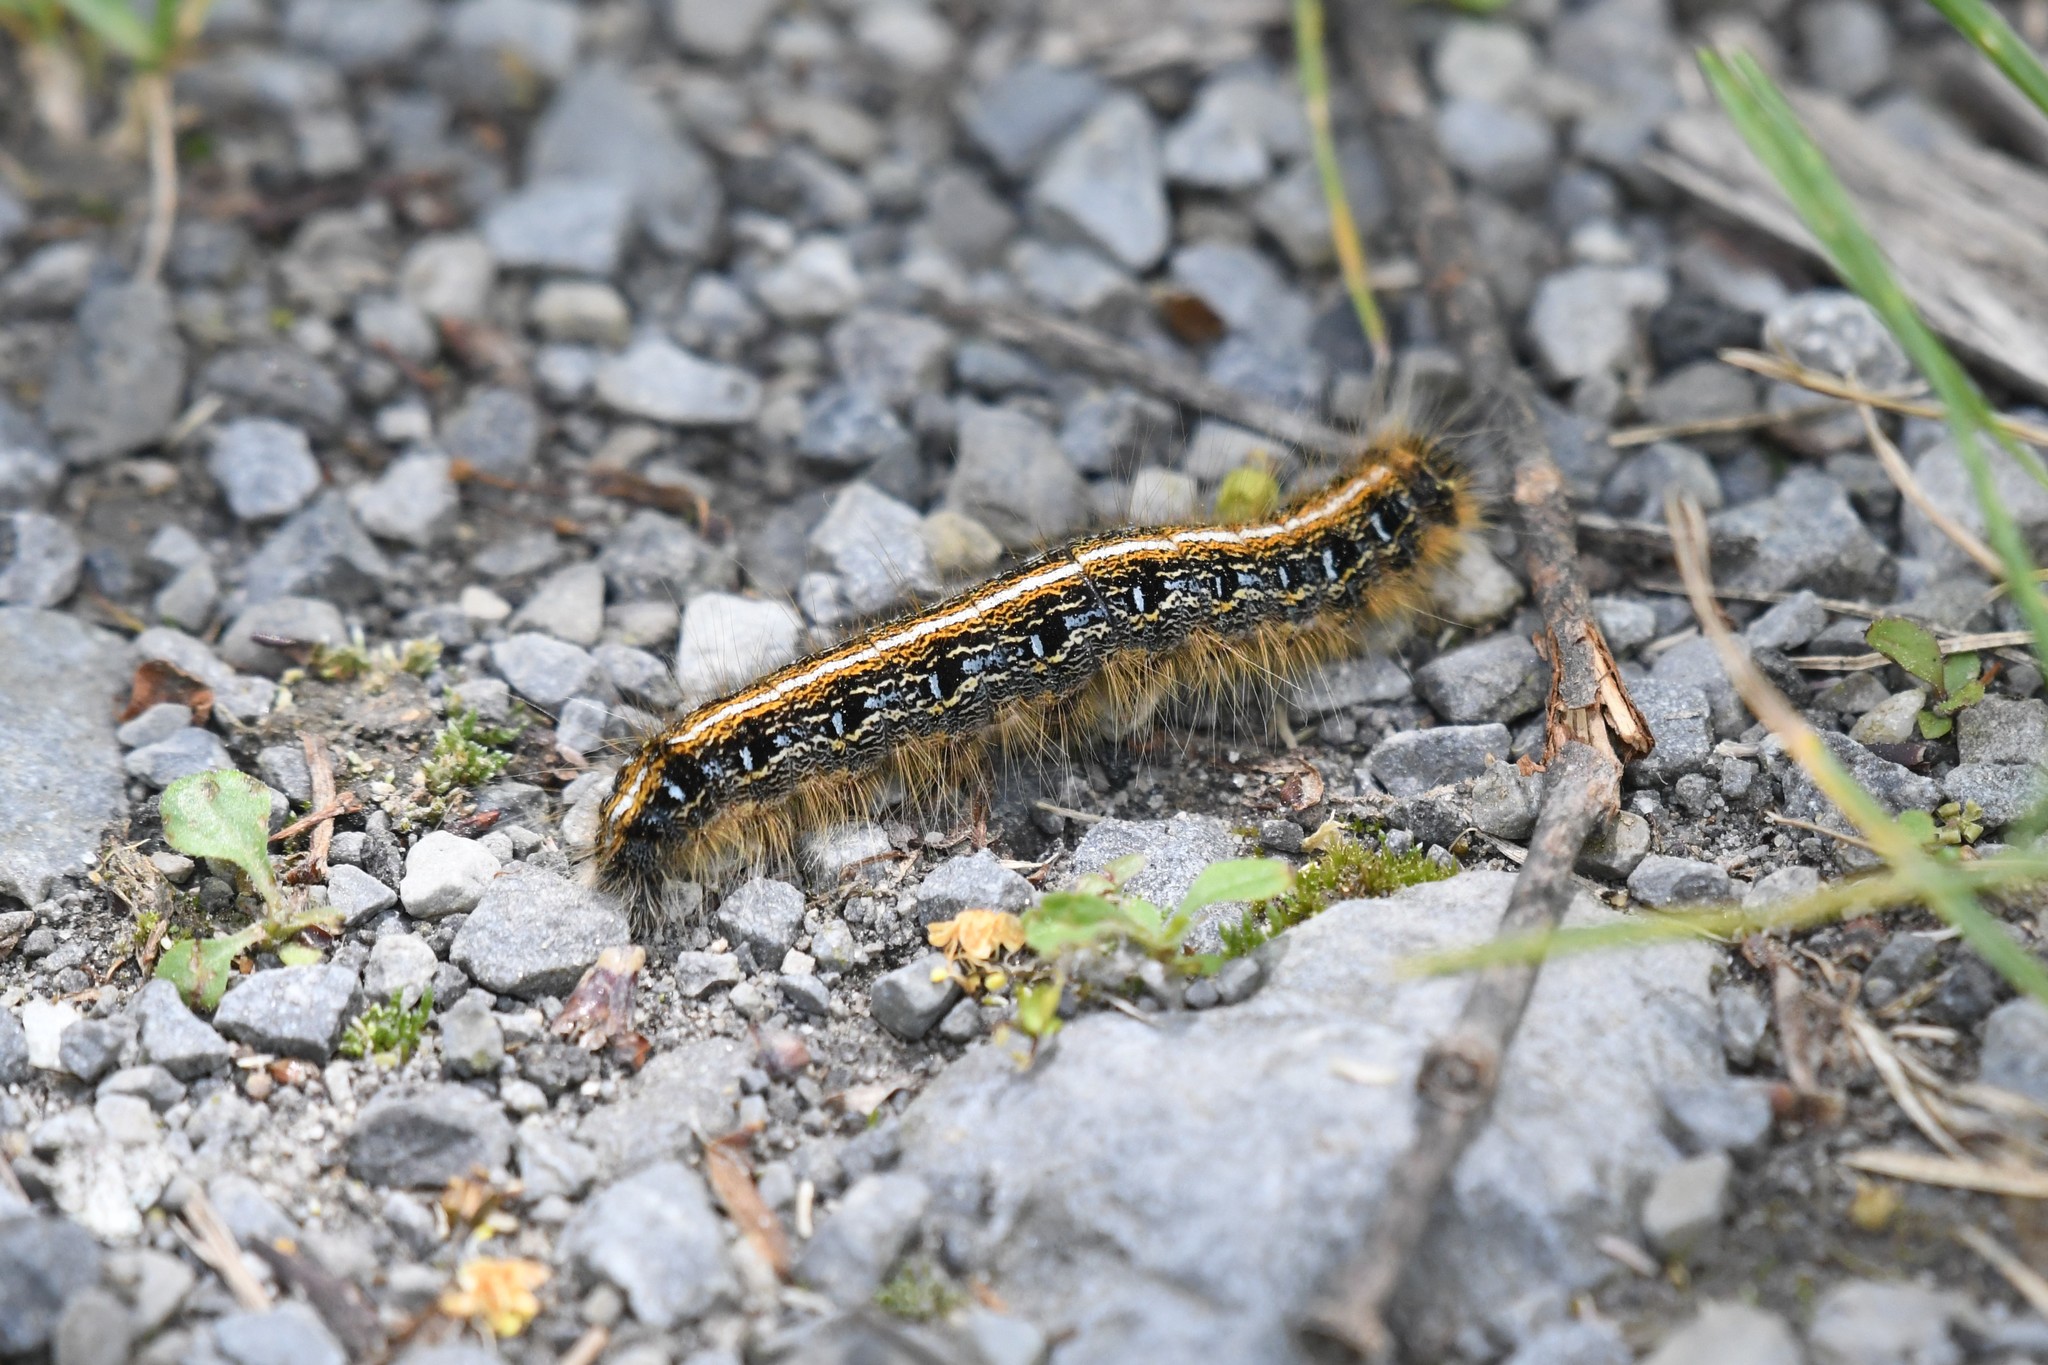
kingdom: Animalia
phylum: Arthropoda
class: Insecta
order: Lepidoptera
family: Lasiocampidae
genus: Malacosoma
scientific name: Malacosoma americana
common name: Eastern tent caterpillar moth
